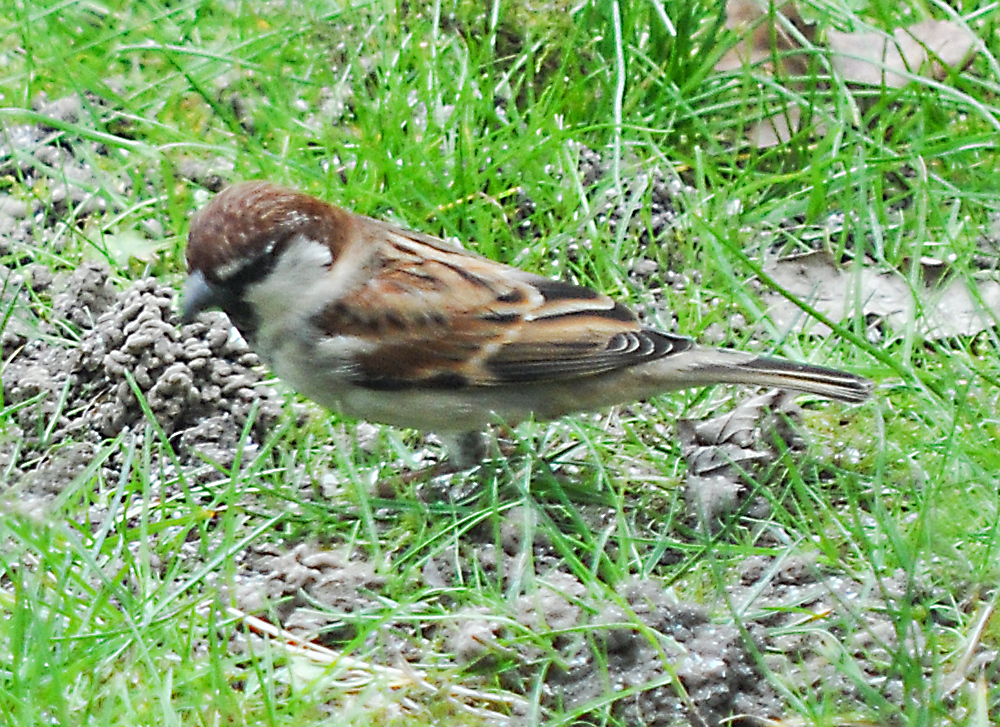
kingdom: Animalia
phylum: Chordata
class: Aves
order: Passeriformes
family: Passeridae
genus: Passer
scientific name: Passer italiae
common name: Italian sparrow
